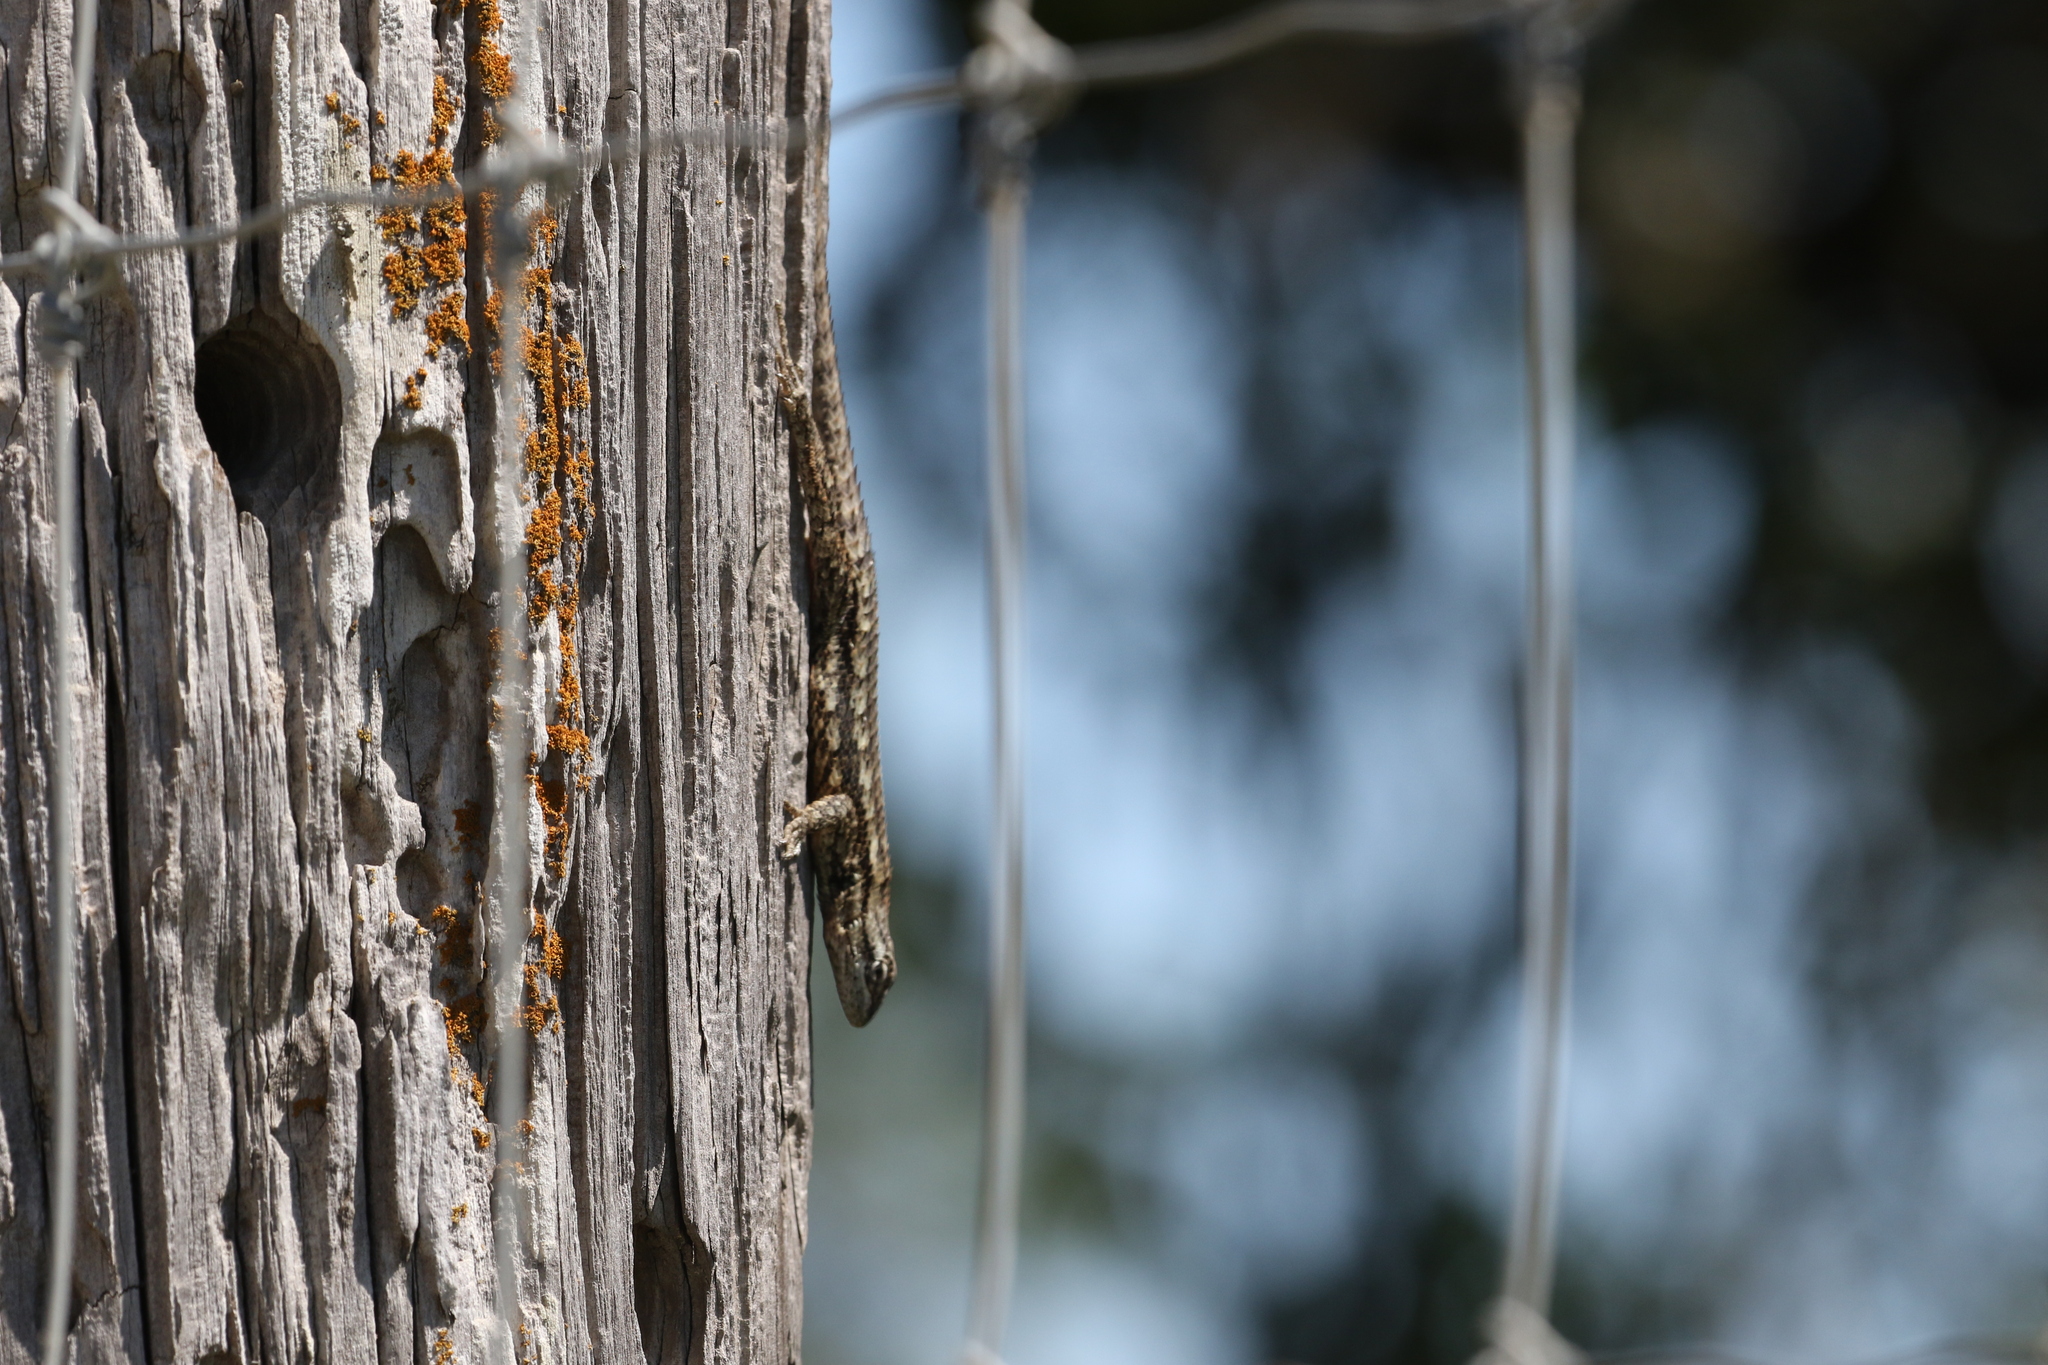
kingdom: Animalia
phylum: Chordata
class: Squamata
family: Phrynosomatidae
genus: Sceloporus
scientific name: Sceloporus olivaceus
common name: Texas spiny lizard
